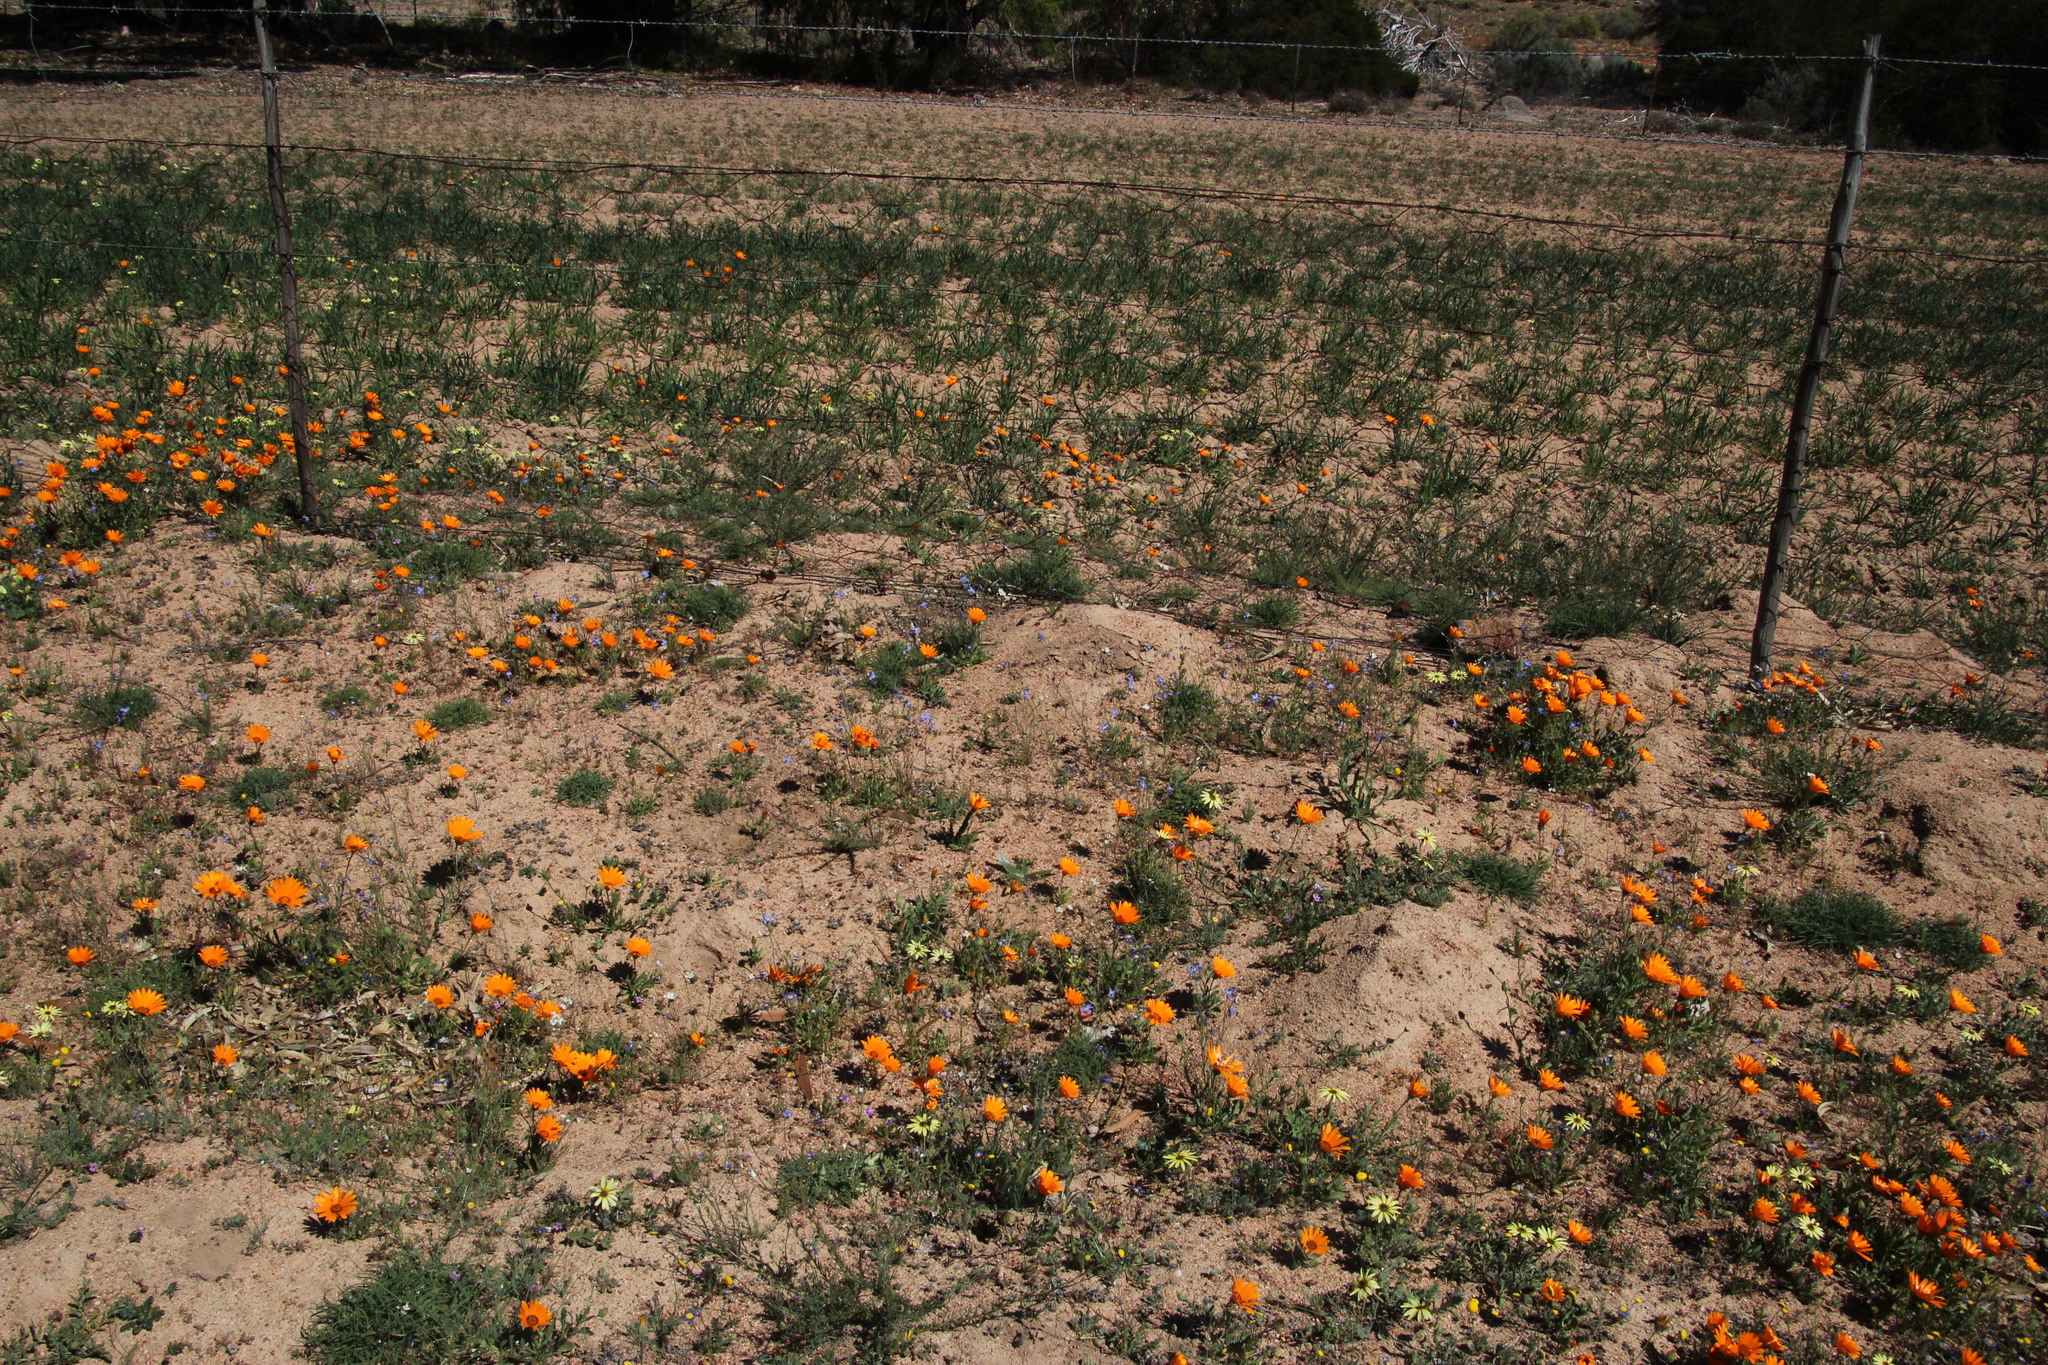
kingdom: Plantae
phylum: Tracheophyta
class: Magnoliopsida
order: Asterales
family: Asteraceae
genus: Dimorphotheca
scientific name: Dimorphotheca sinuata
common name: Glandular cape marigold
